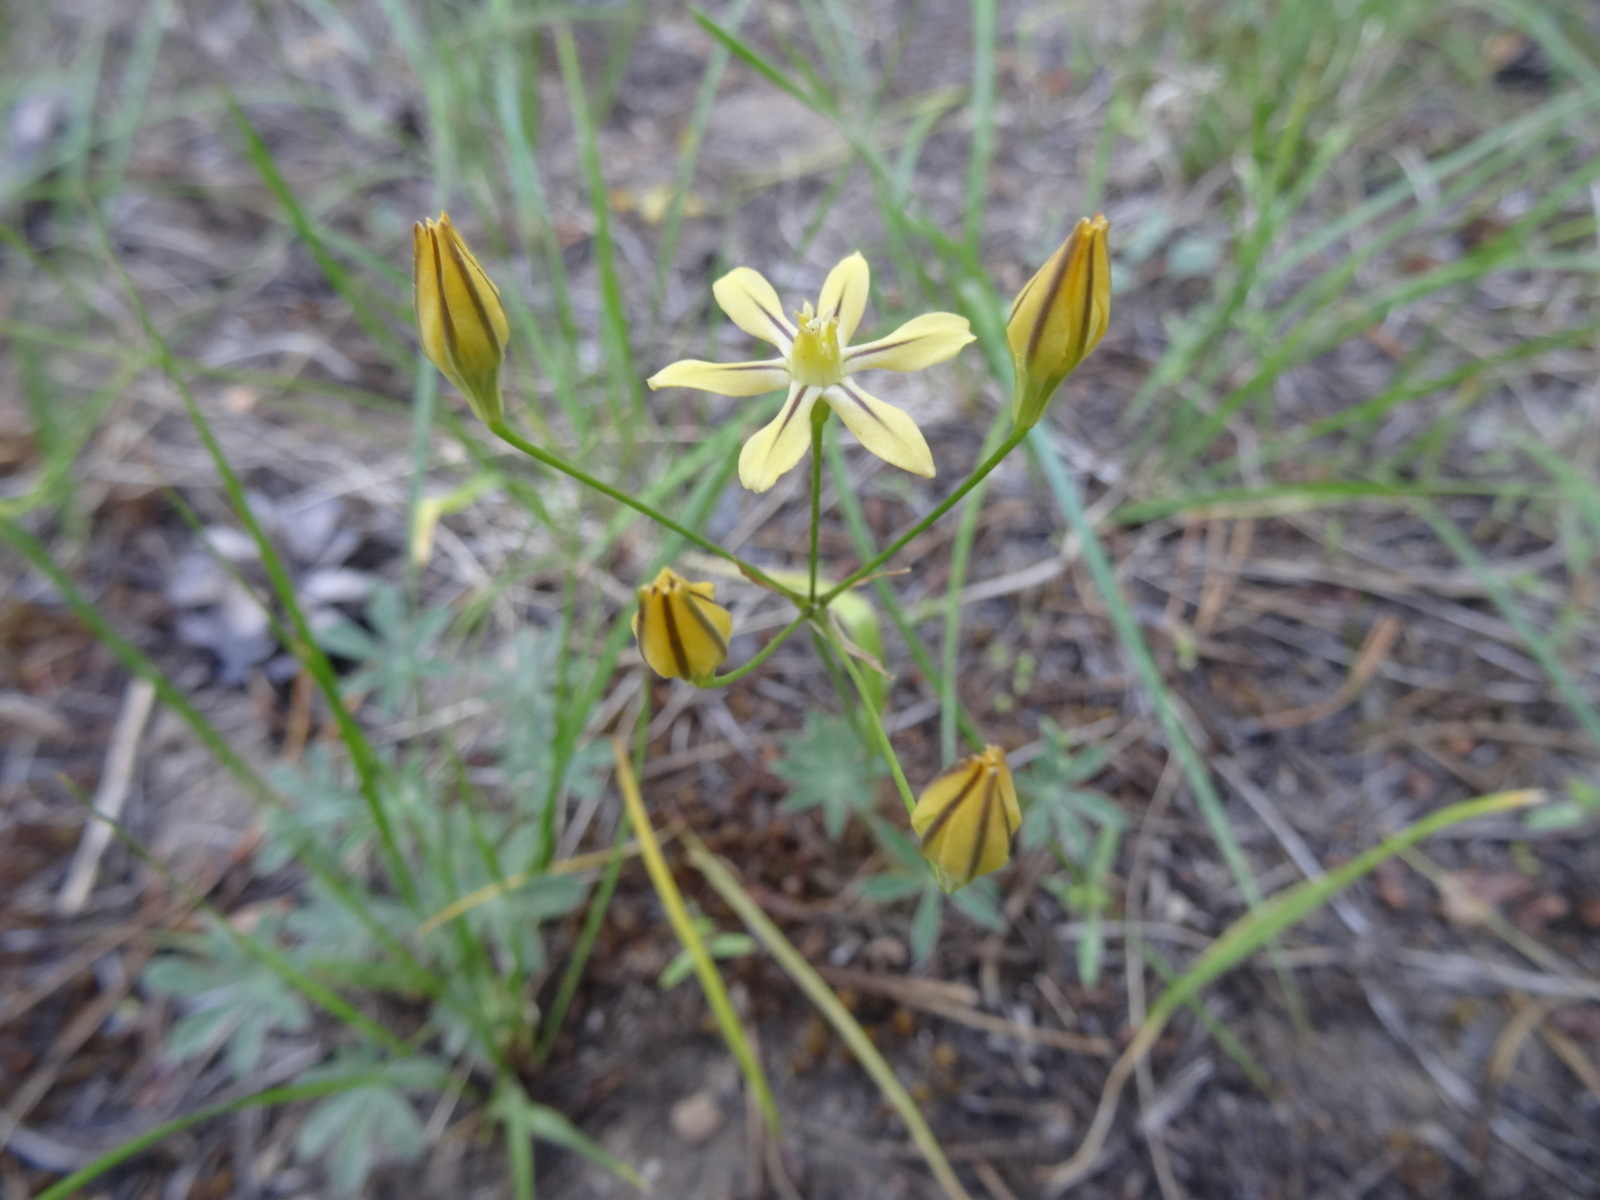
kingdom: Plantae
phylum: Tracheophyta
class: Liliopsida
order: Asparagales
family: Asparagaceae
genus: Triteleia
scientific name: Triteleia ixioides
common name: Yellow-brodiaea
